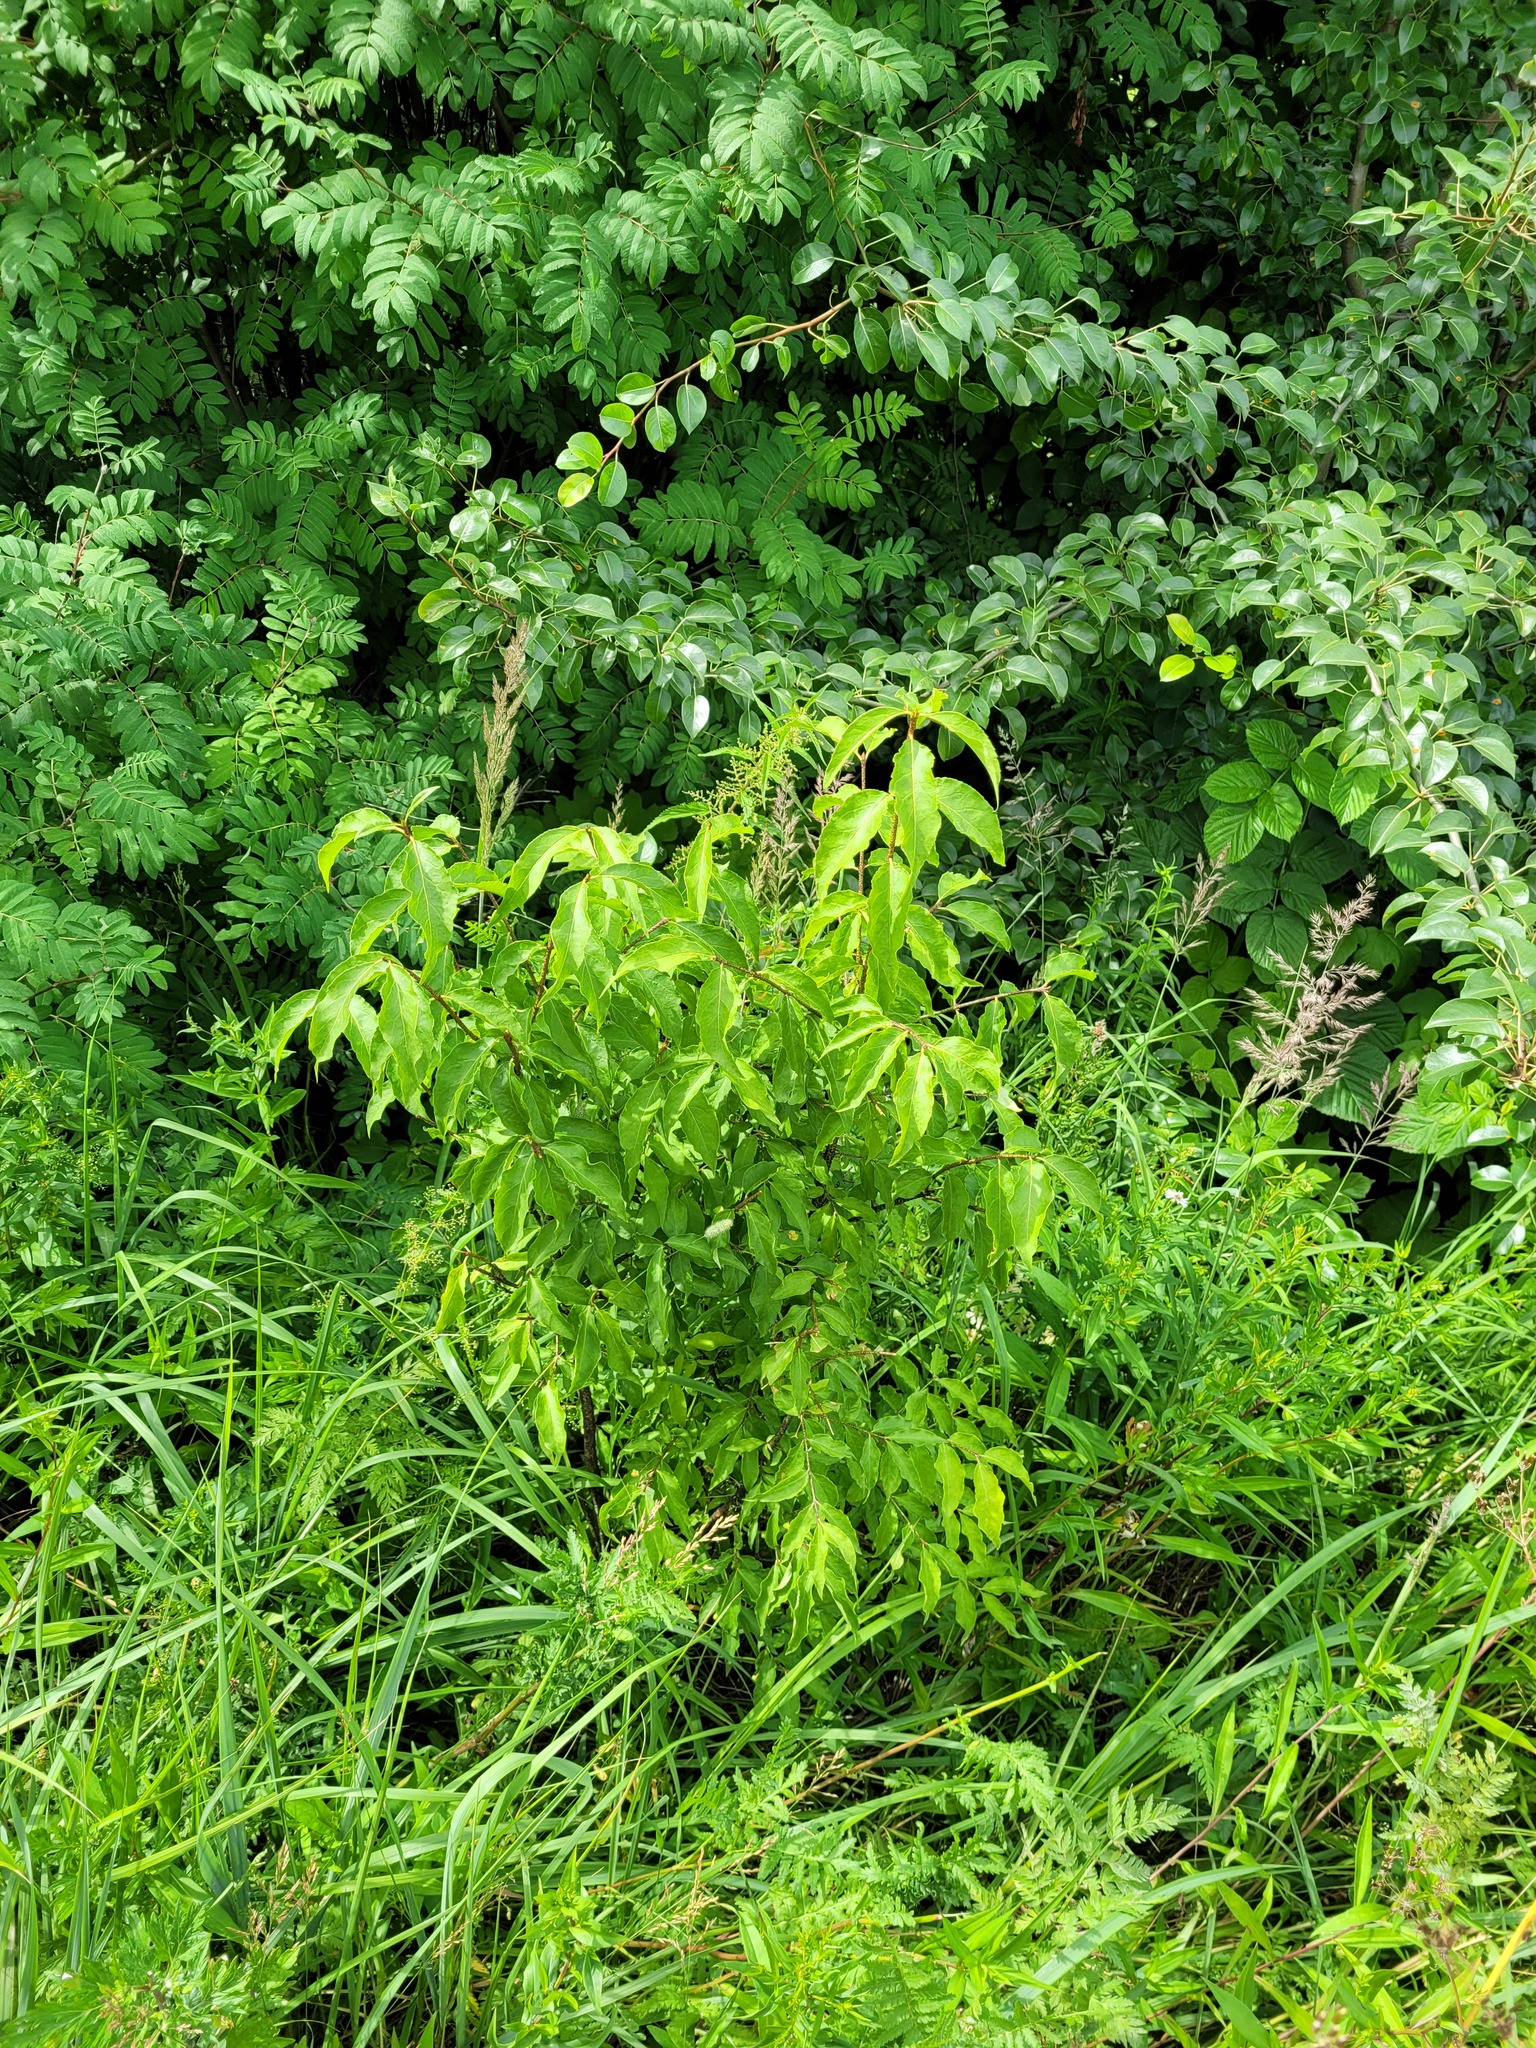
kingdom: Plantae
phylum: Tracheophyta
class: Magnoliopsida
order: Celastrales
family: Celastraceae
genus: Euonymus
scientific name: Euonymus verrucosus
